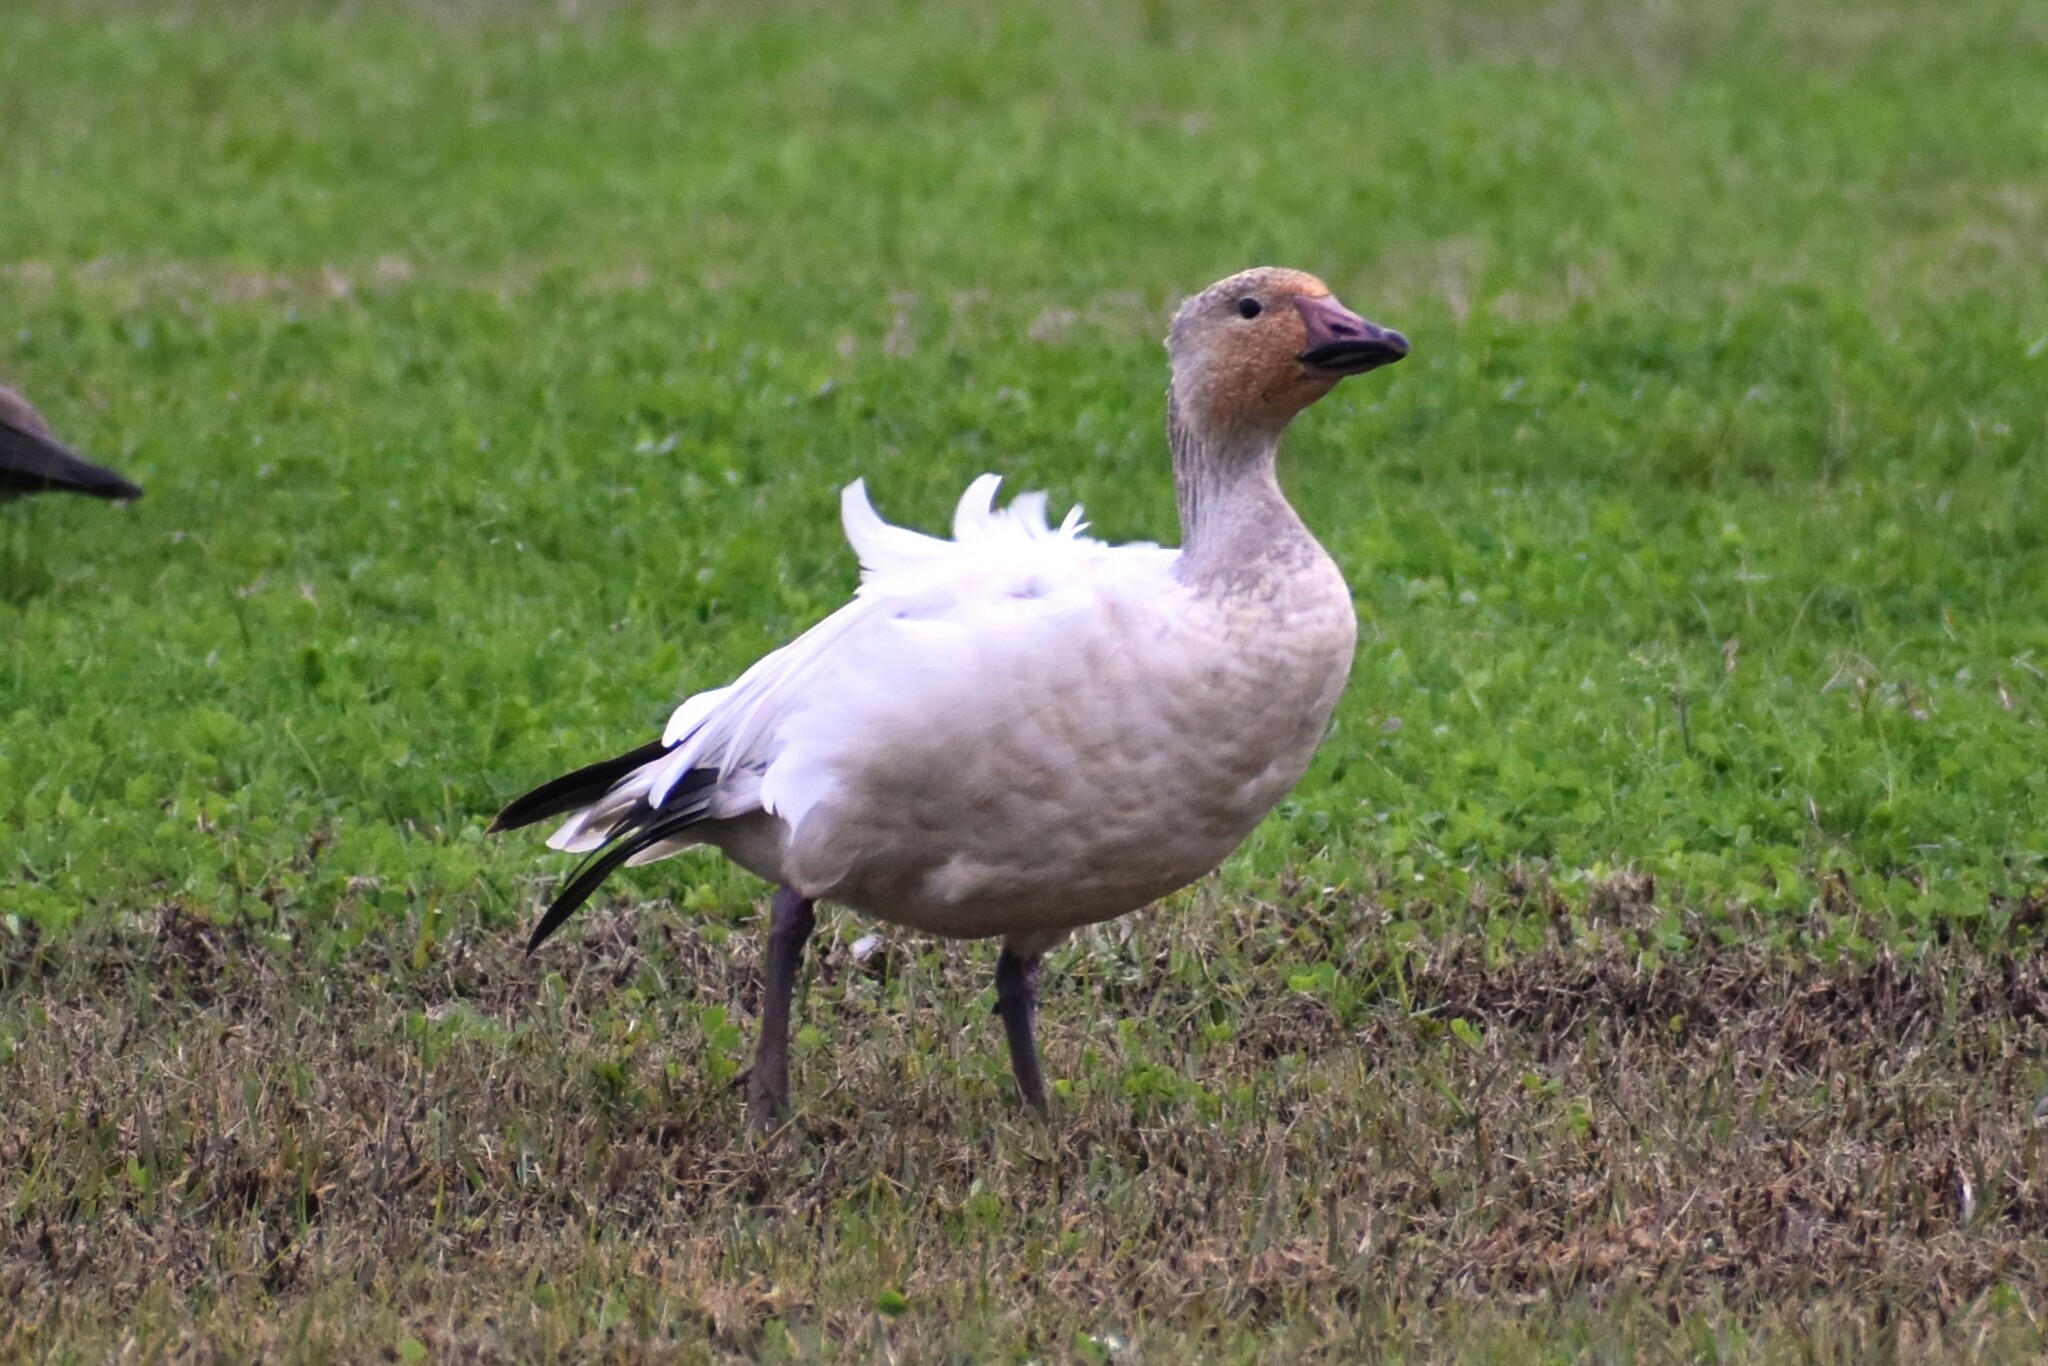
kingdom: Animalia
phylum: Chordata
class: Aves
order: Anseriformes
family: Anatidae
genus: Anser
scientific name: Anser caerulescens
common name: Snow goose
